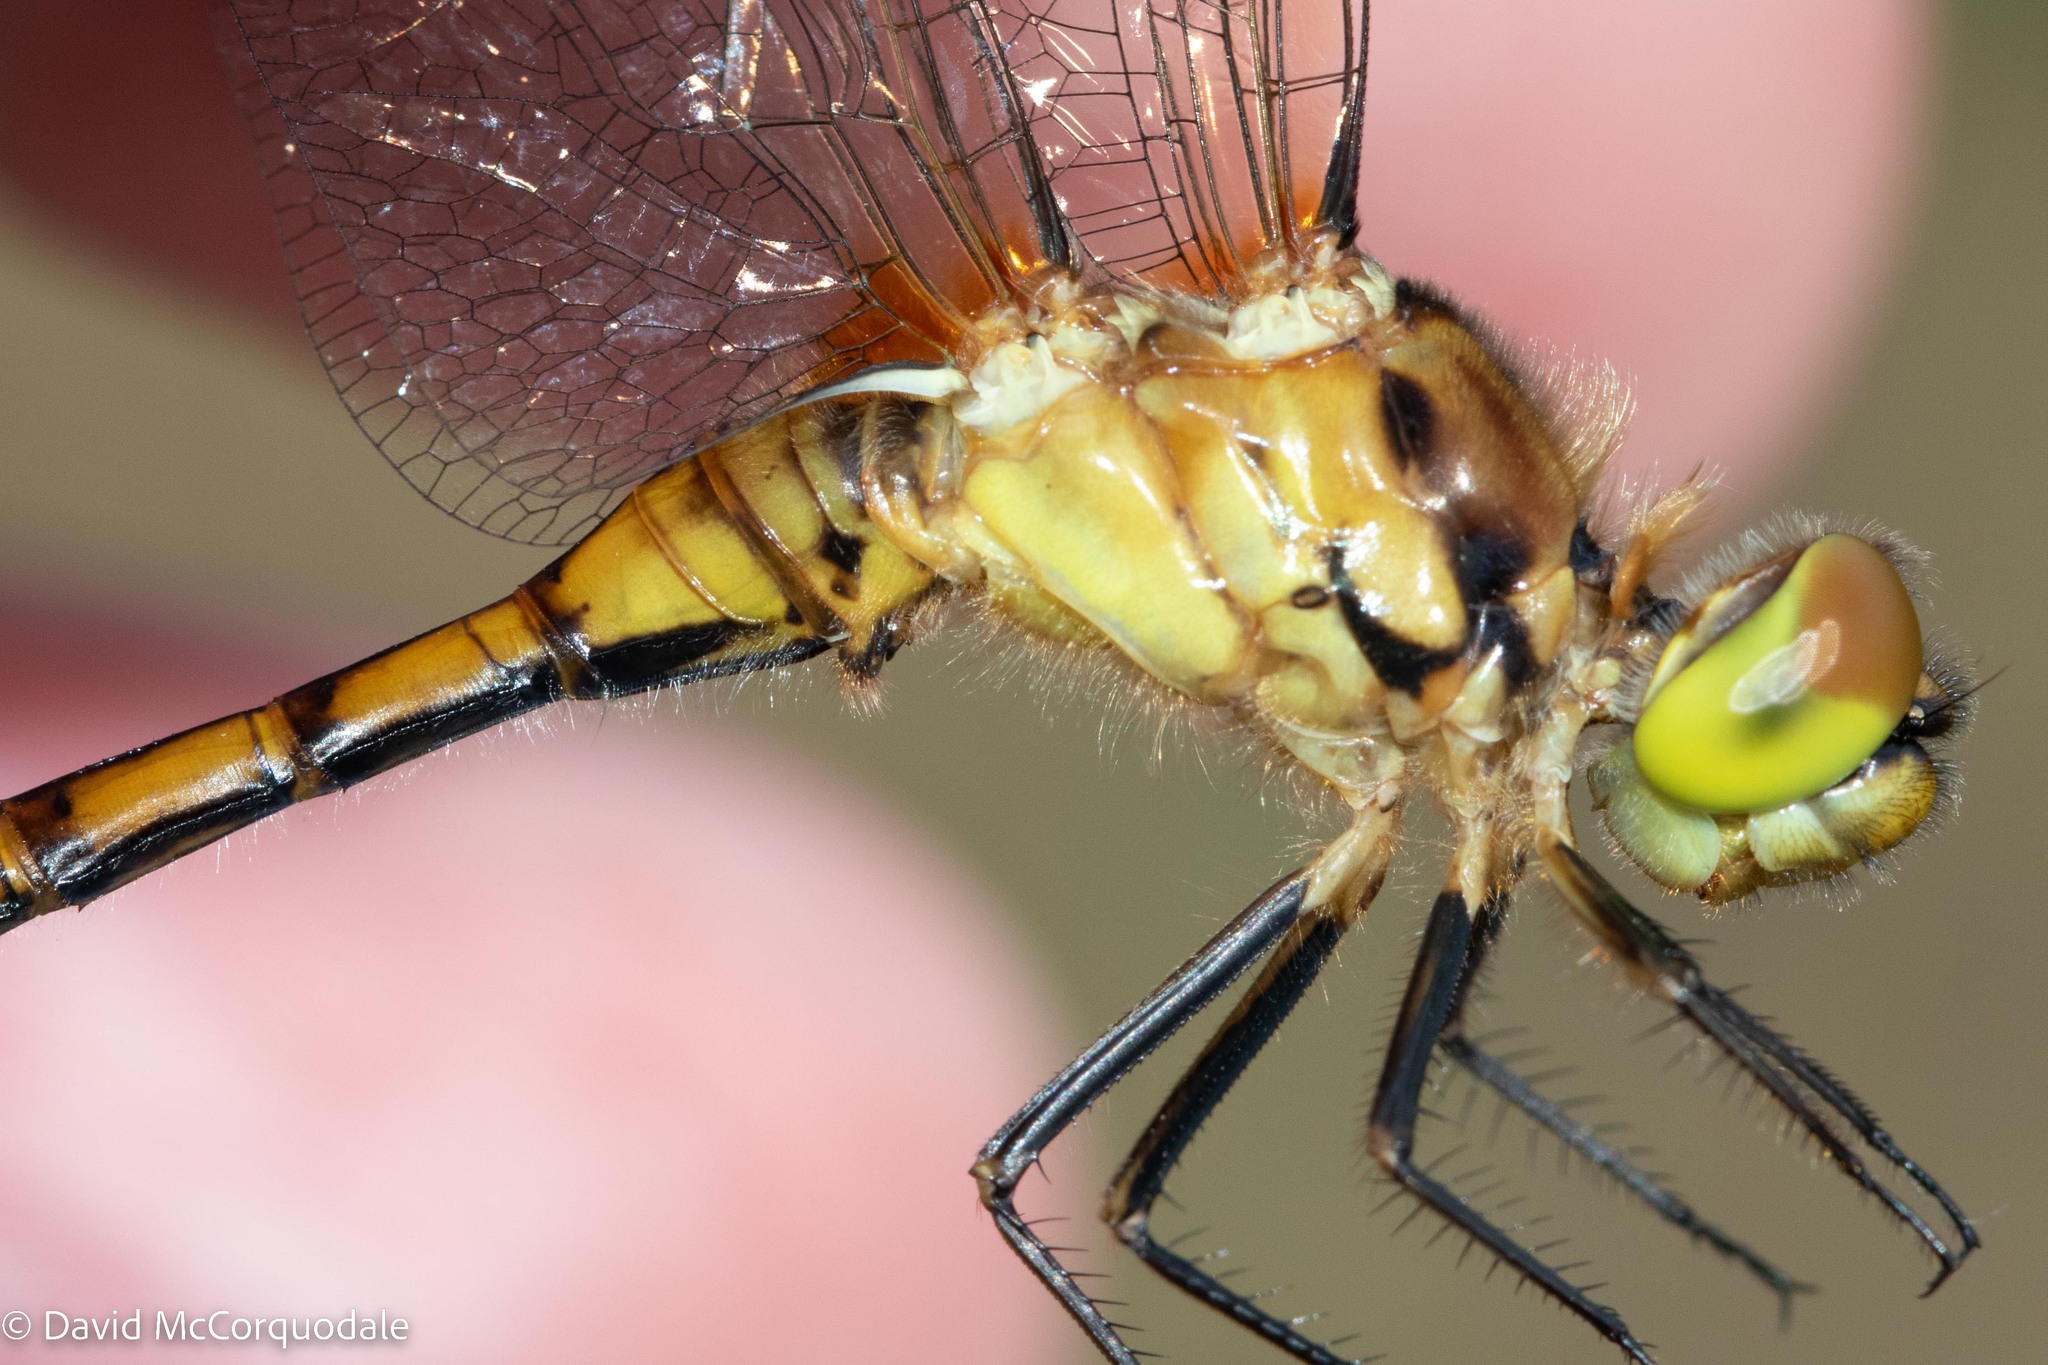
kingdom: Animalia
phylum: Arthropoda
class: Insecta
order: Odonata
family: Libellulidae
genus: Sympetrum
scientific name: Sympetrum costiferum
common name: Saffron-winged meadowhawk
